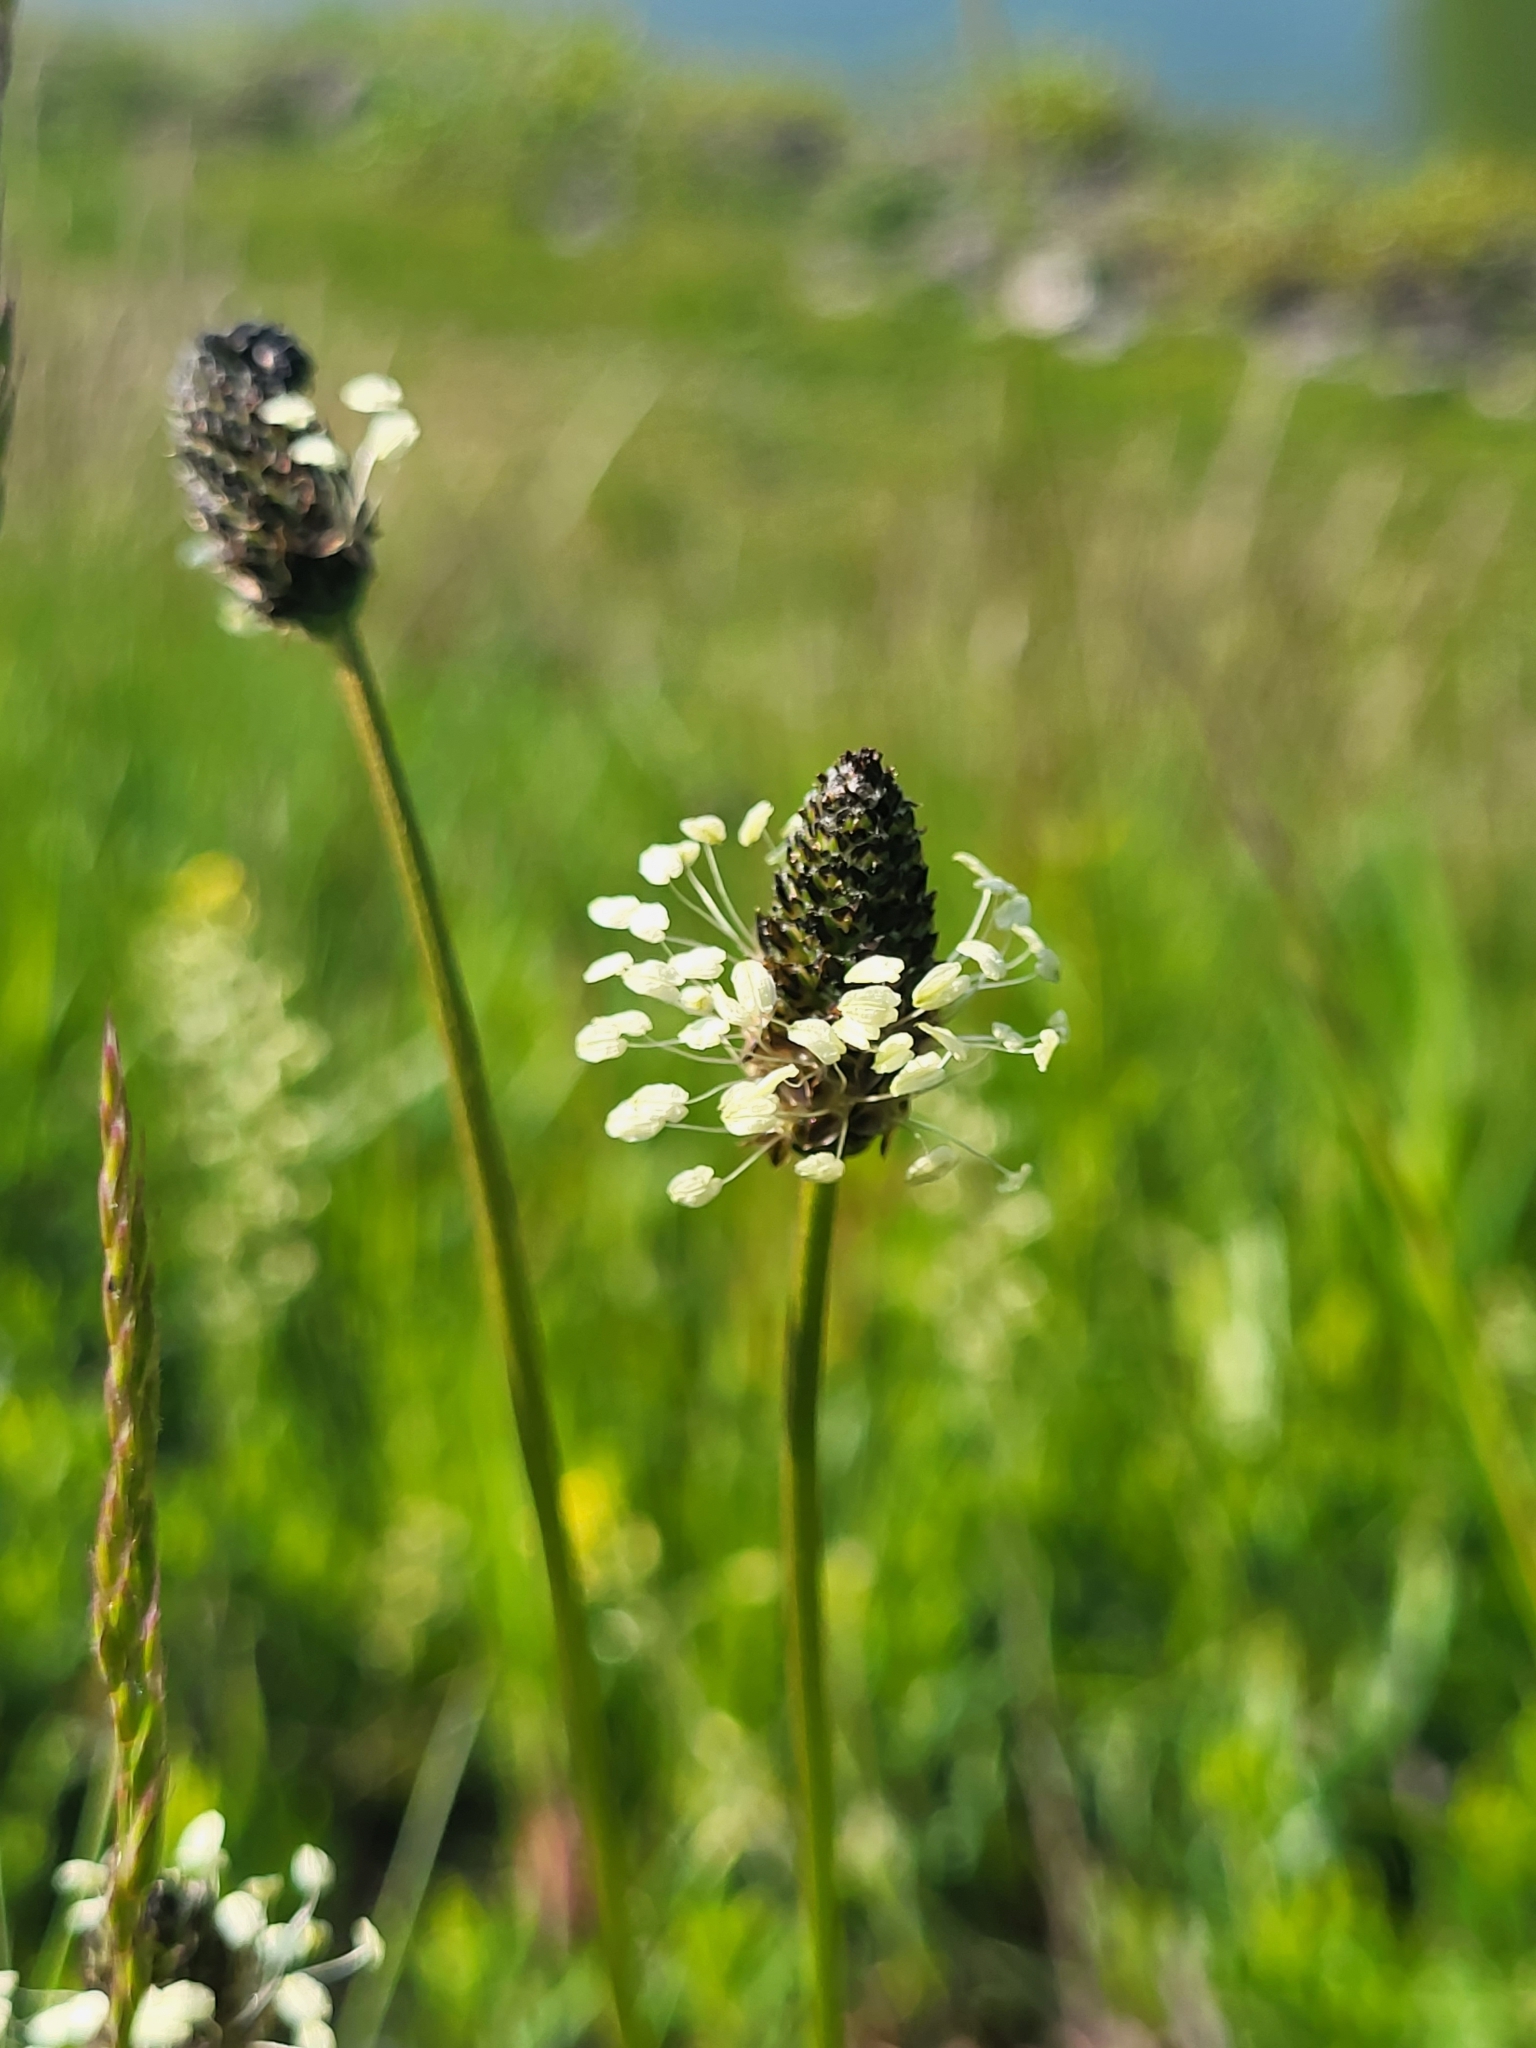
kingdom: Plantae
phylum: Tracheophyta
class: Magnoliopsida
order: Lamiales
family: Plantaginaceae
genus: Plantago
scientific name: Plantago lanceolata
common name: Ribwort plantain
